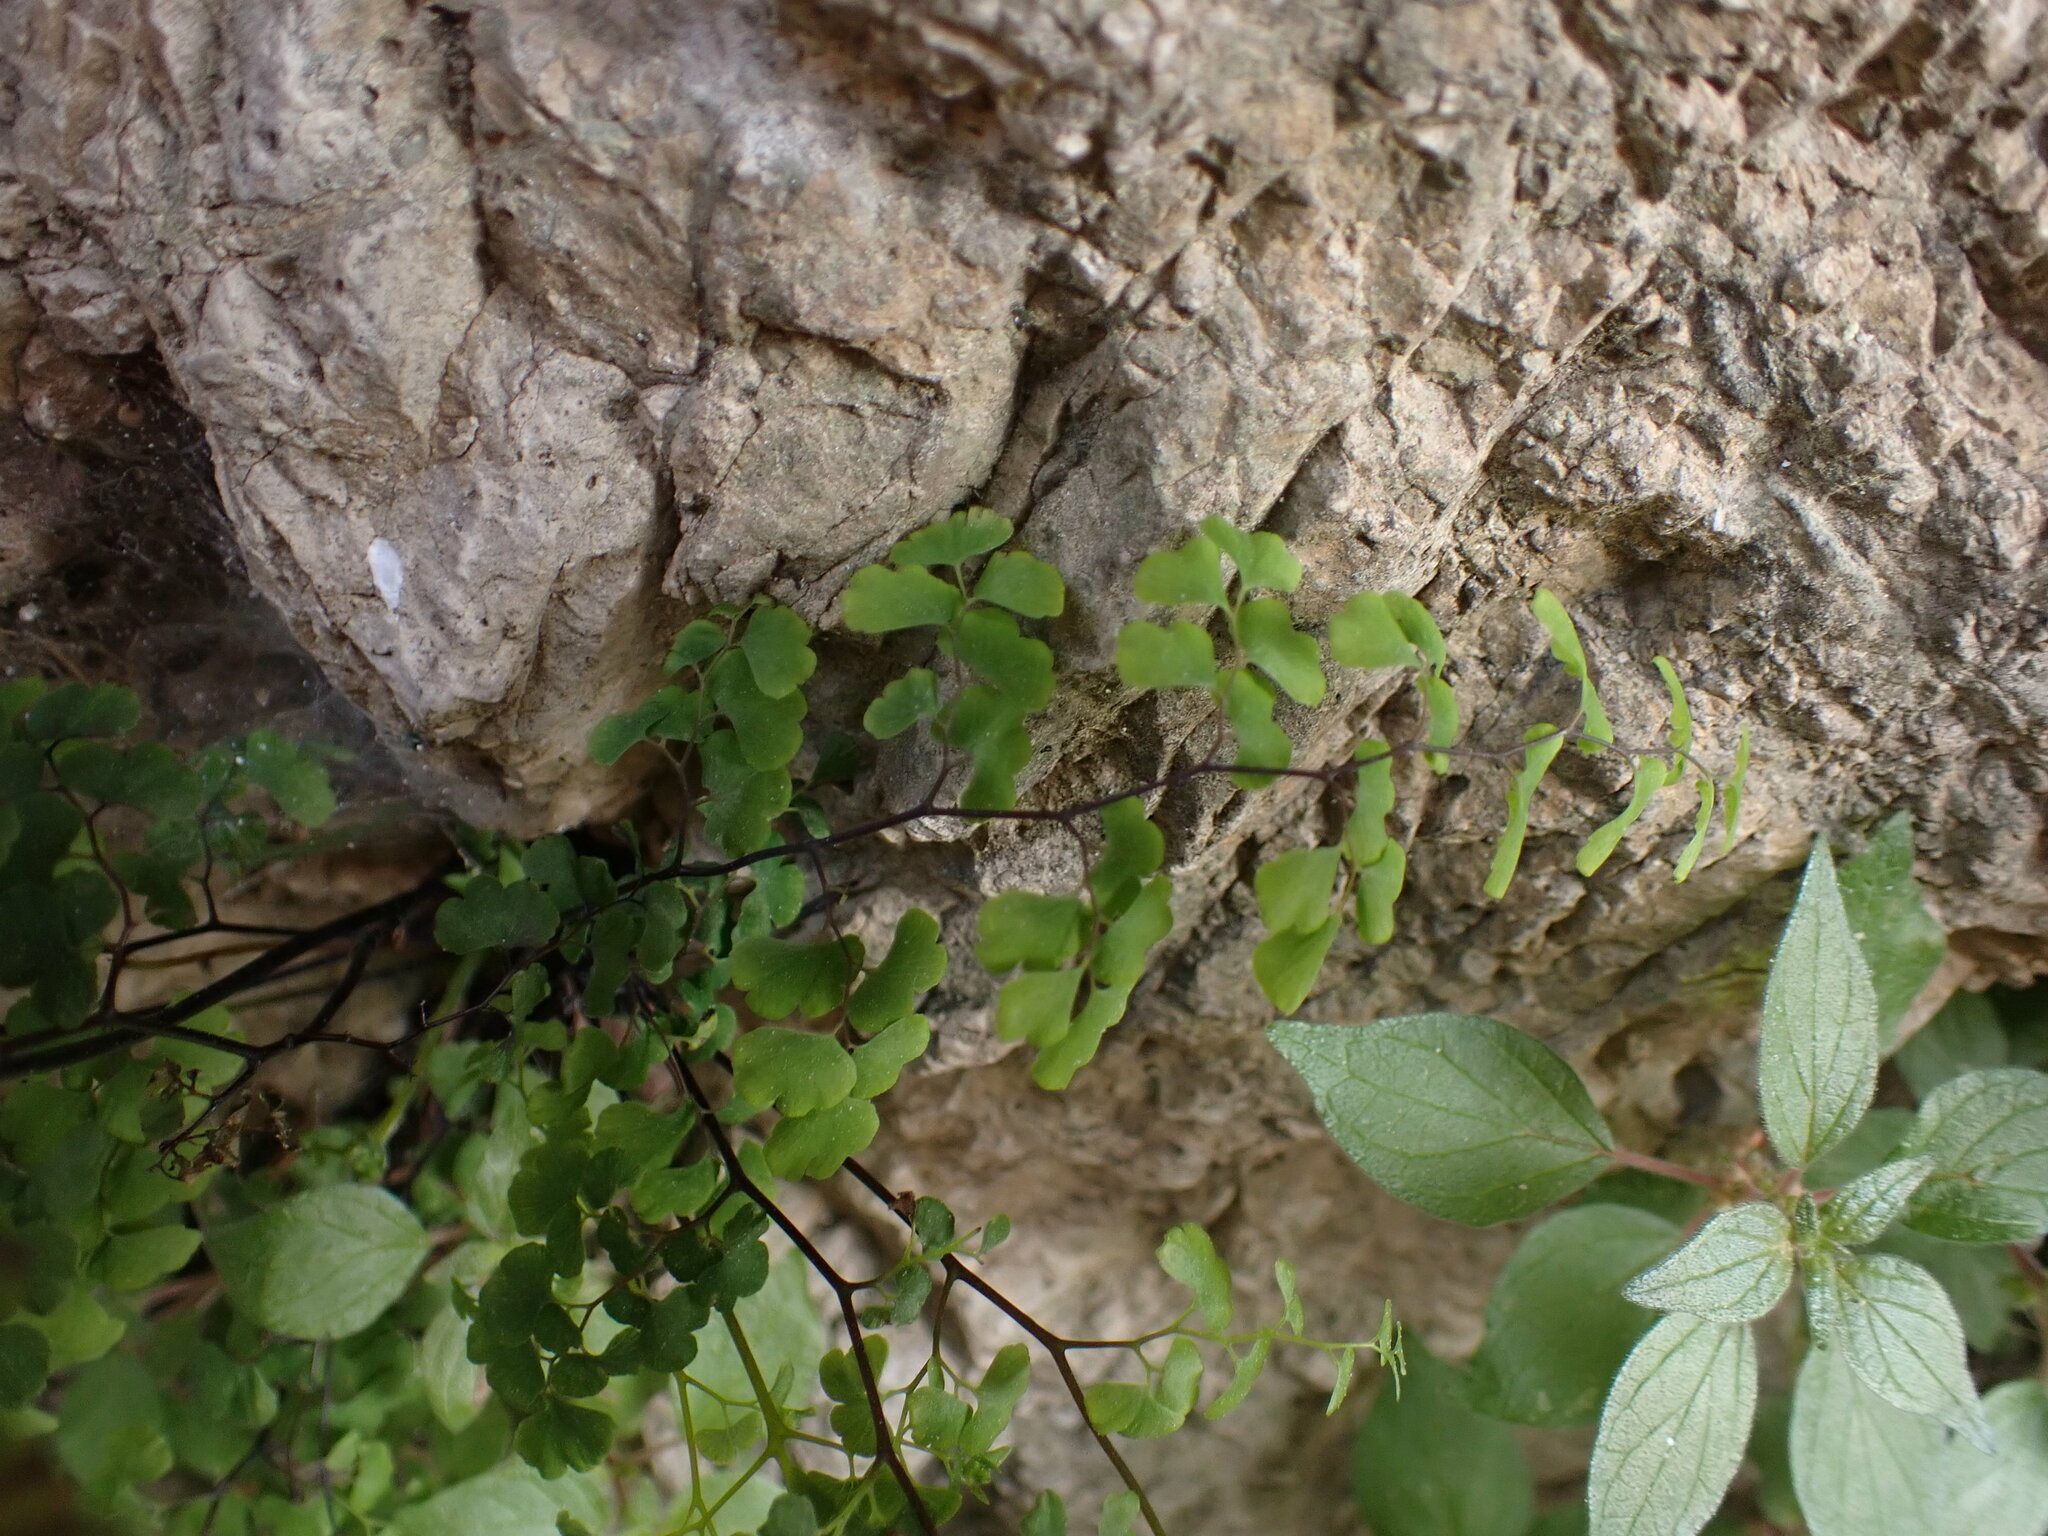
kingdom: Plantae
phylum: Tracheophyta
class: Polypodiopsida
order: Polypodiales
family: Pteridaceae
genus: Adiantum
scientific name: Adiantum capillus-veneris
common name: Maidenhair fern
